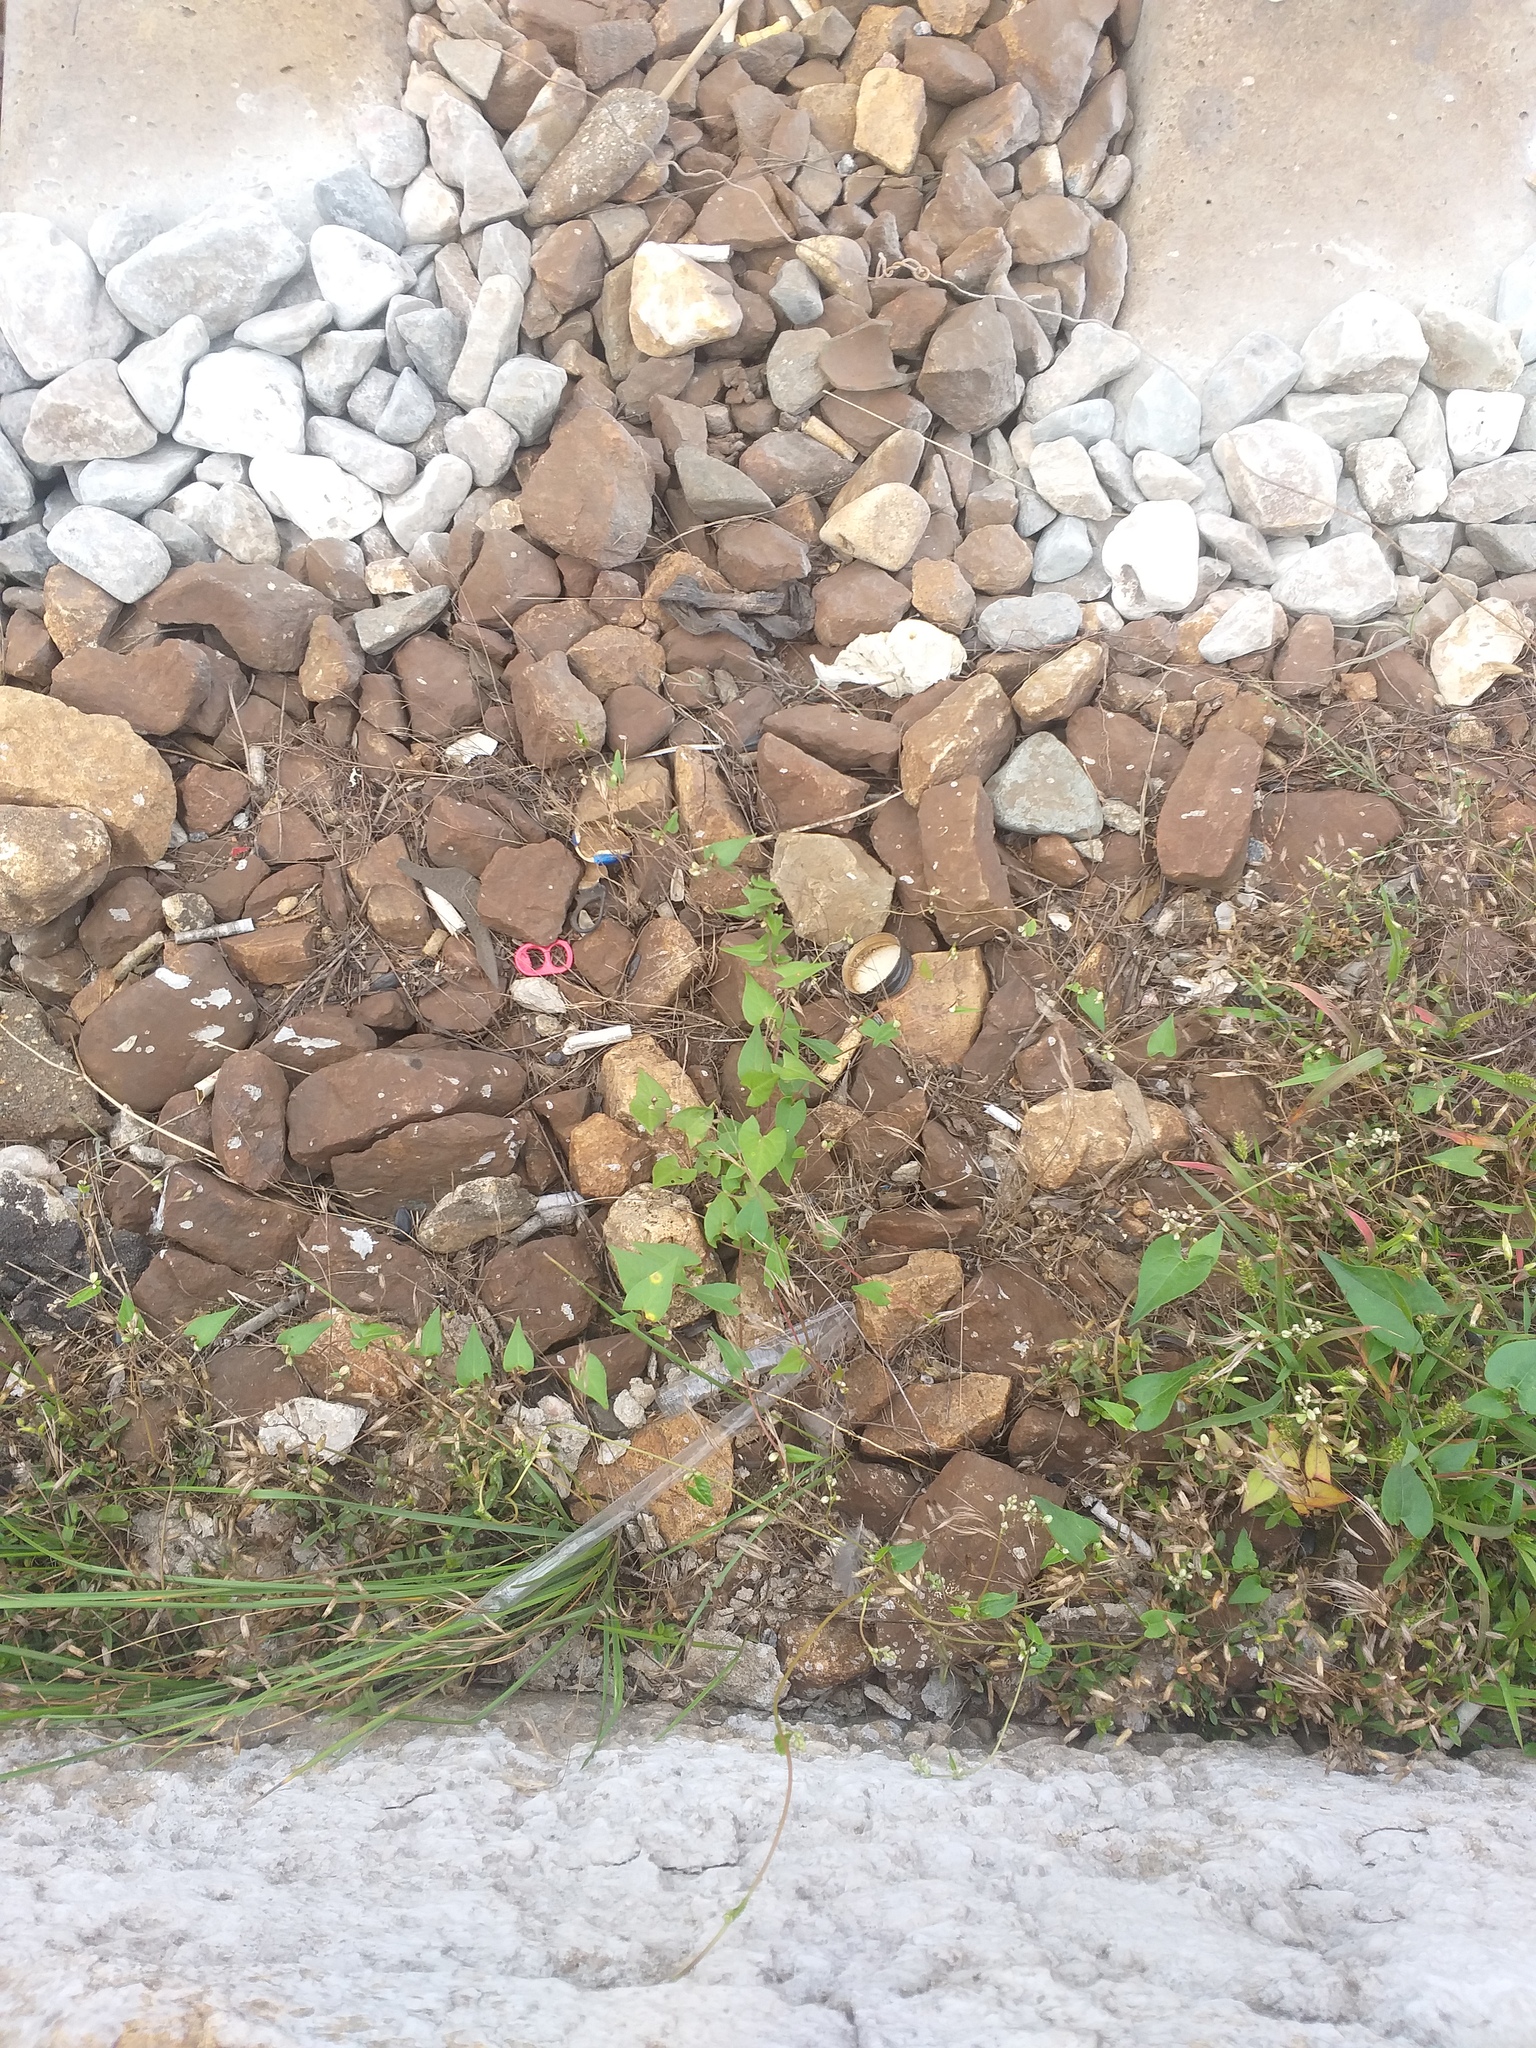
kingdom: Plantae
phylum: Tracheophyta
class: Magnoliopsida
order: Caryophyllales
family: Polygonaceae
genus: Fallopia
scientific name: Fallopia convolvulus
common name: Black bindweed
